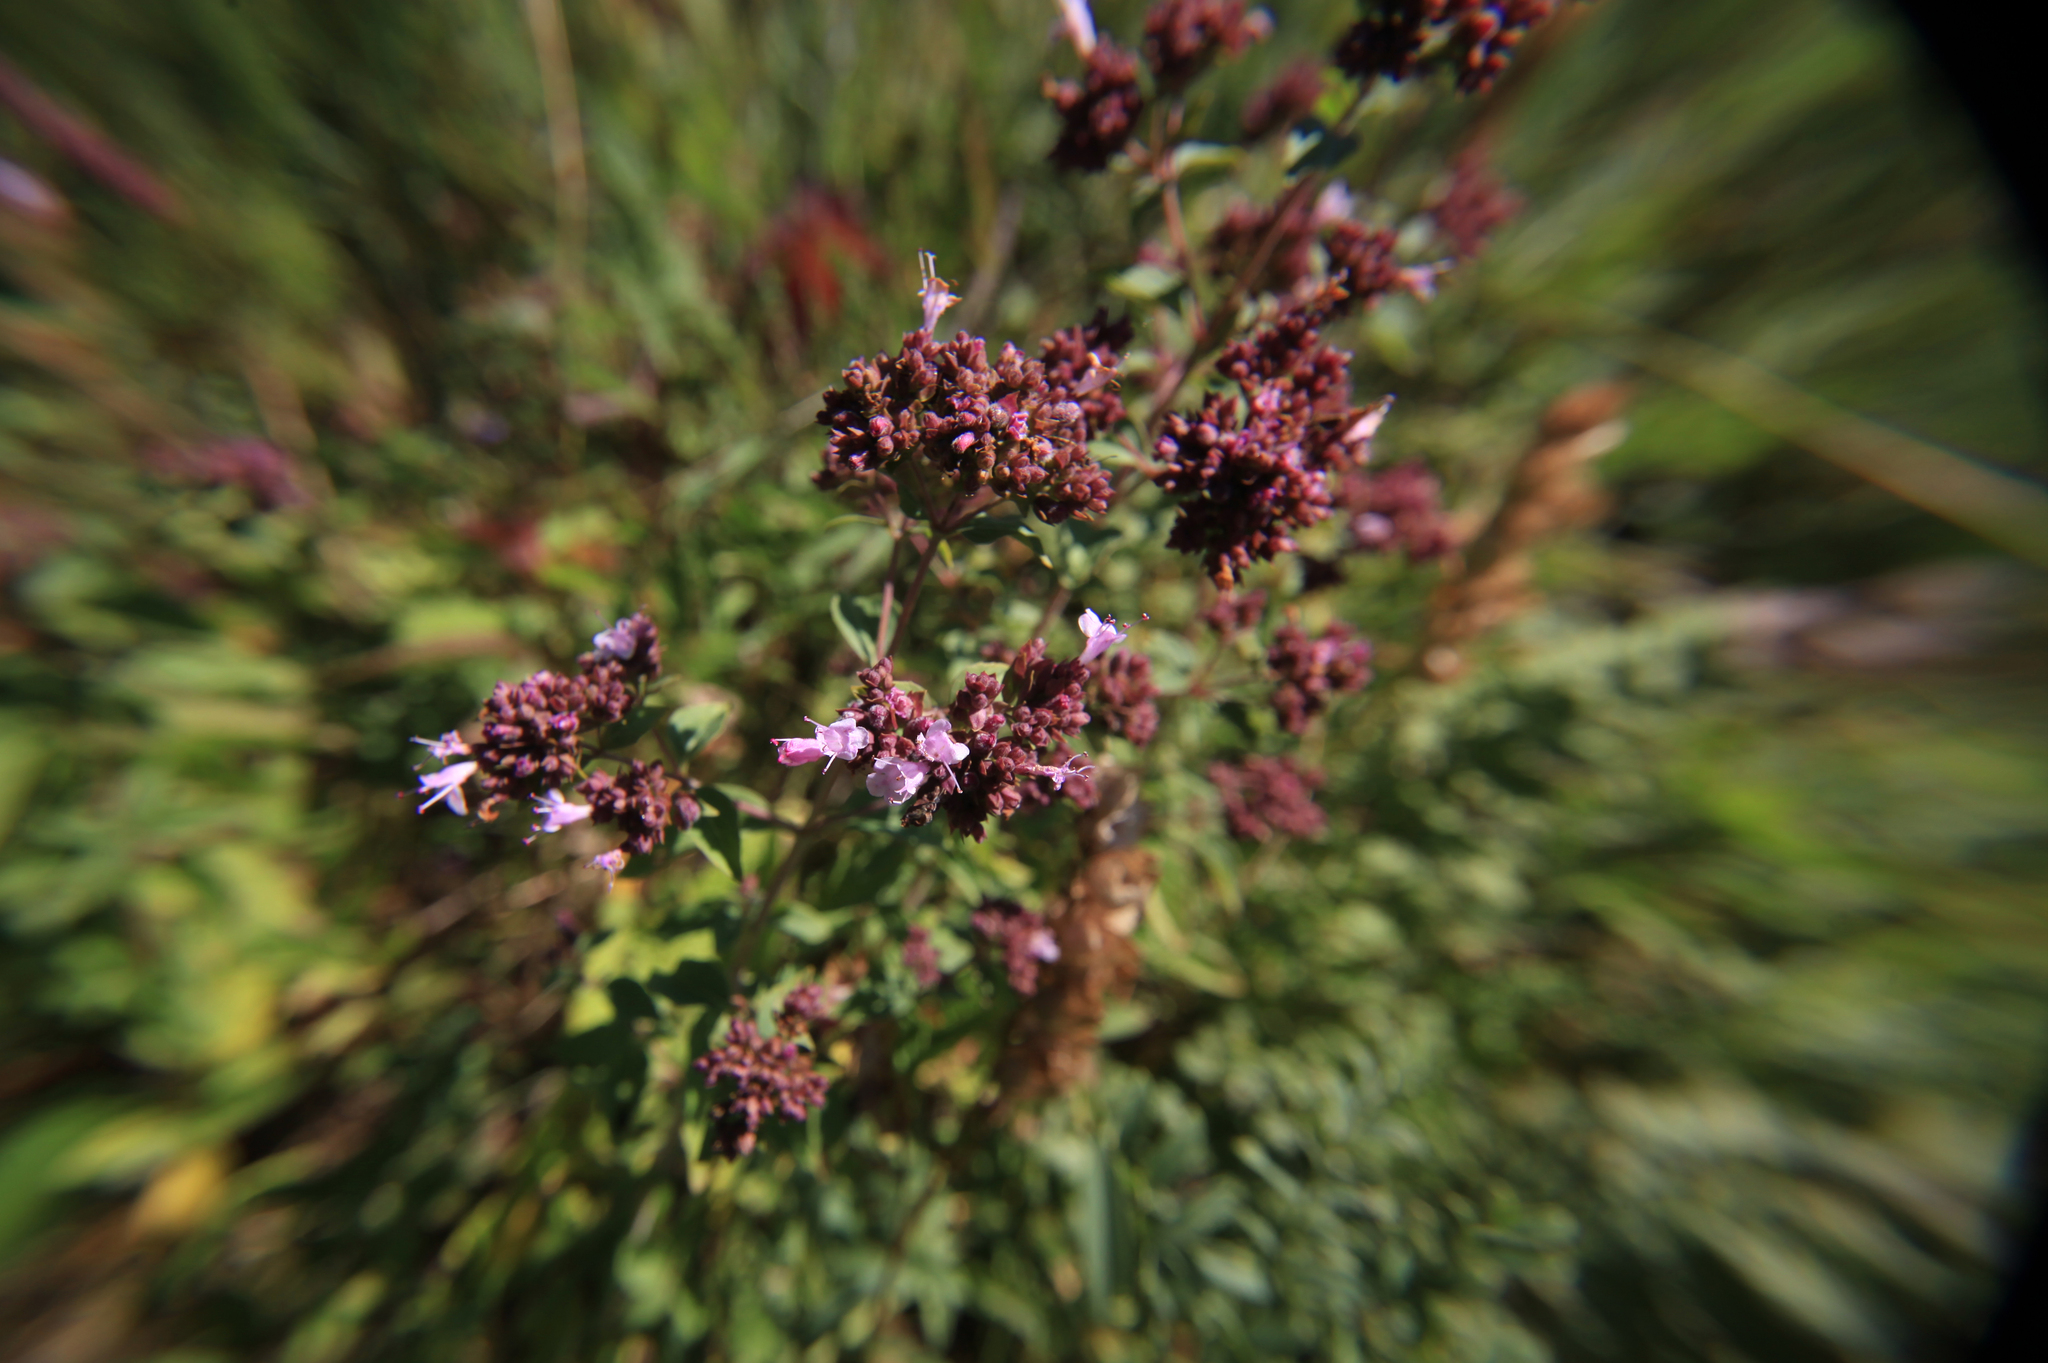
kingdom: Plantae
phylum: Tracheophyta
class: Magnoliopsida
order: Lamiales
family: Lamiaceae
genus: Origanum
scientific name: Origanum vulgare
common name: Wild marjoram
